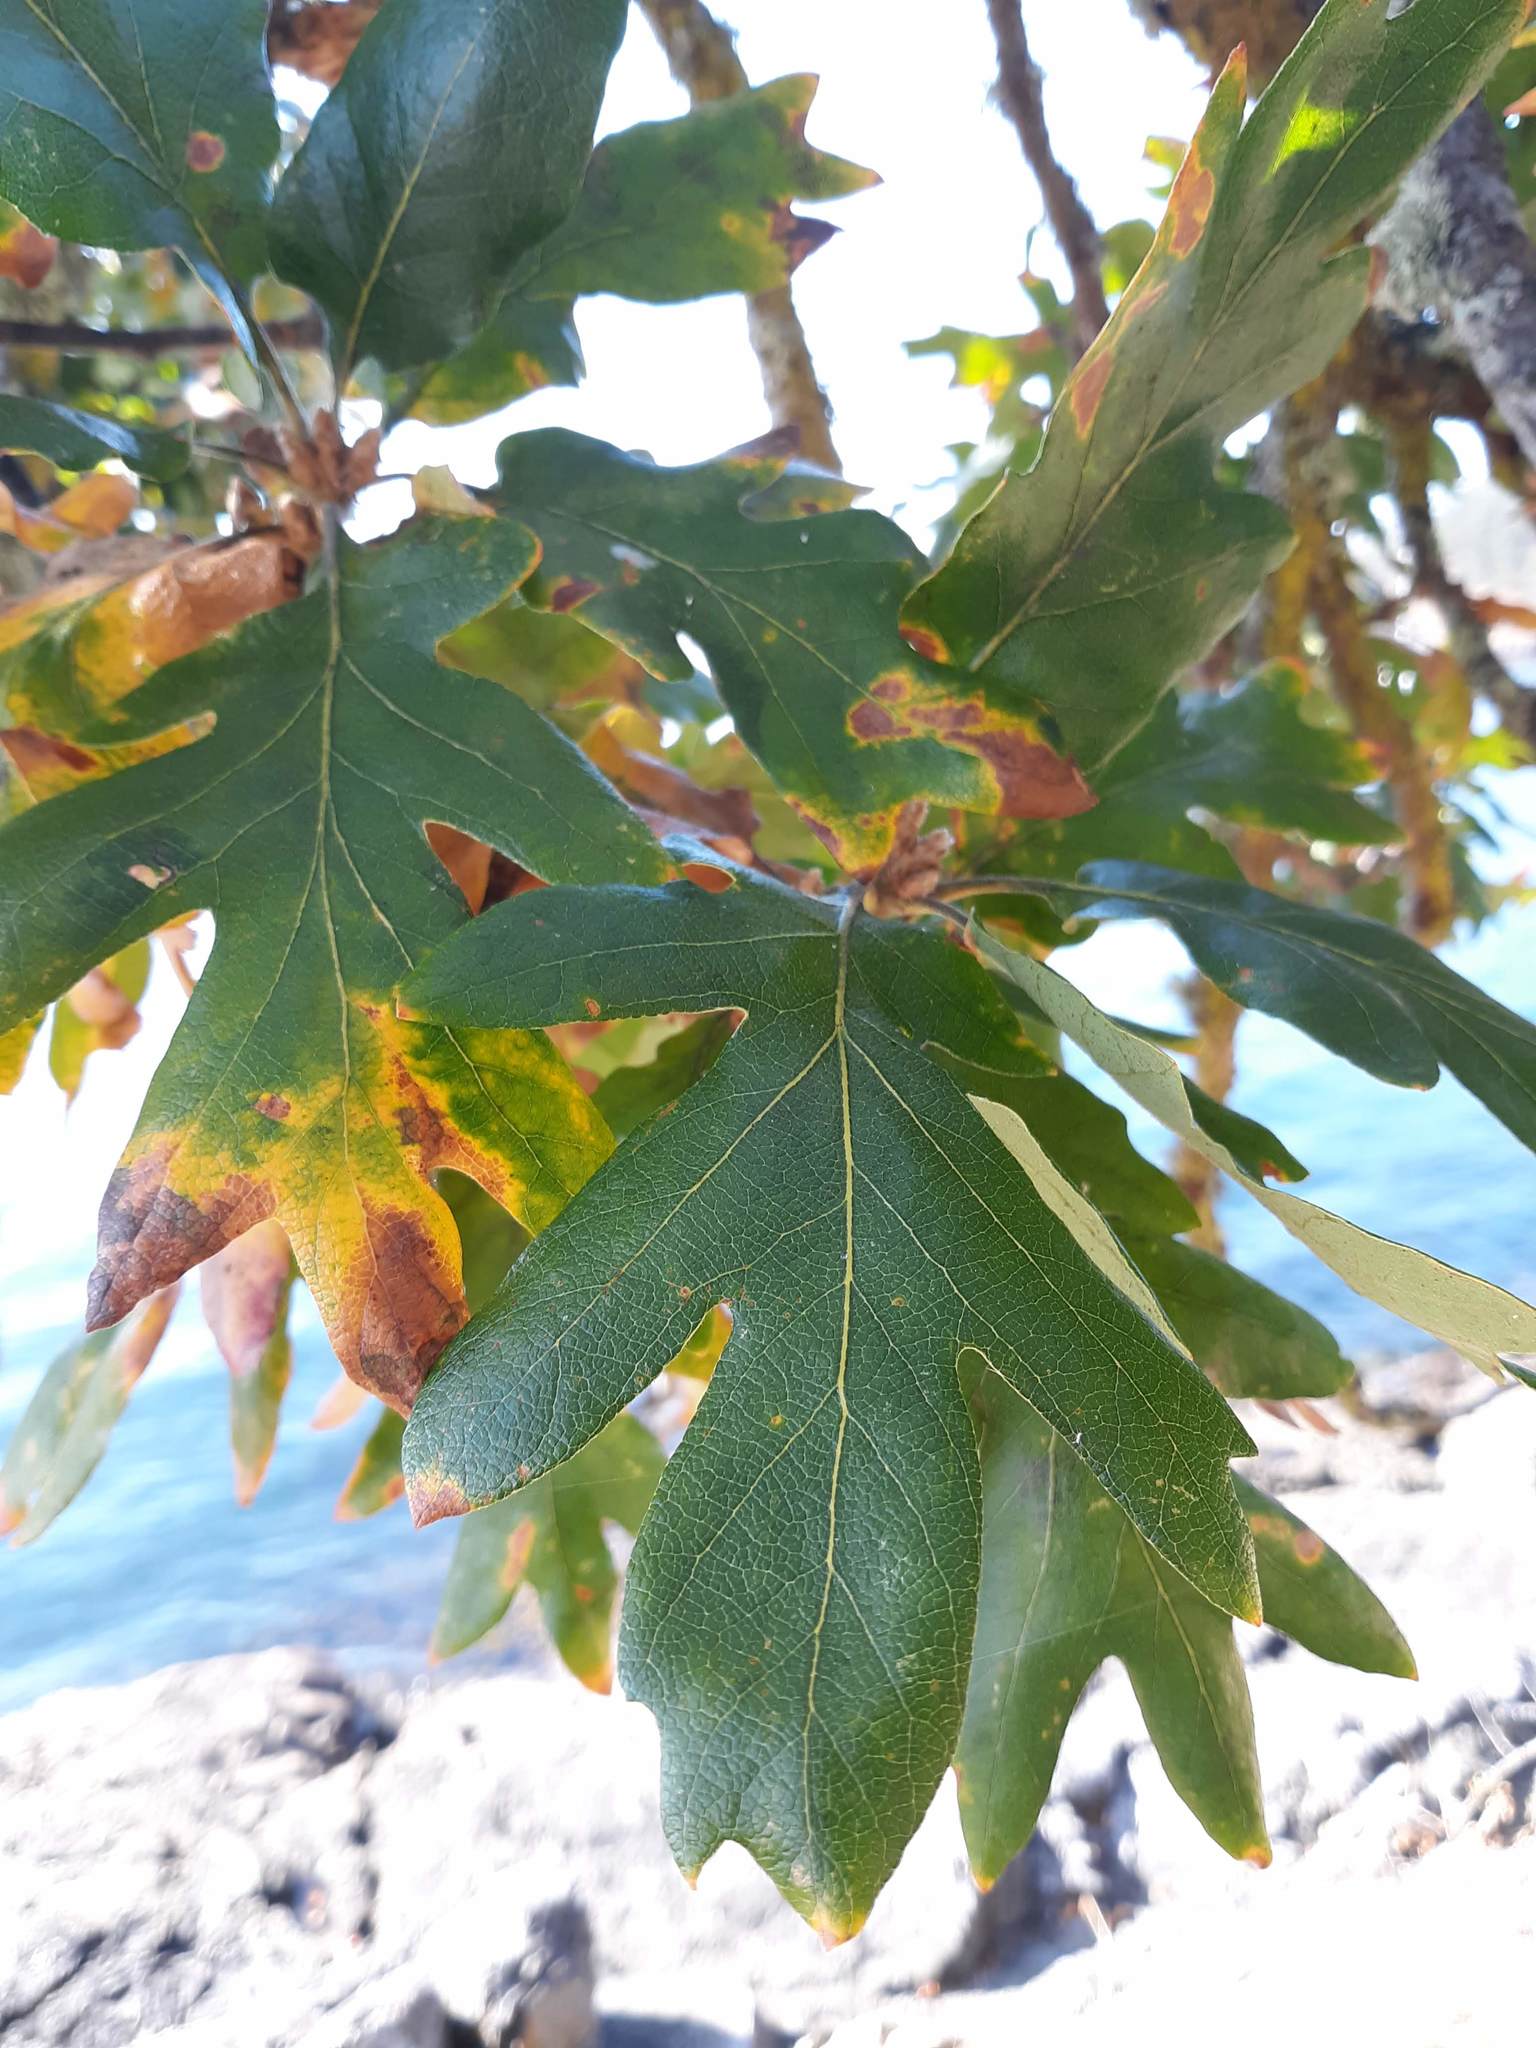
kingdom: Plantae
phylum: Tracheophyta
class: Magnoliopsida
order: Fagales
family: Fagaceae
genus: Quercus
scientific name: Quercus garryana
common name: Garry oak
